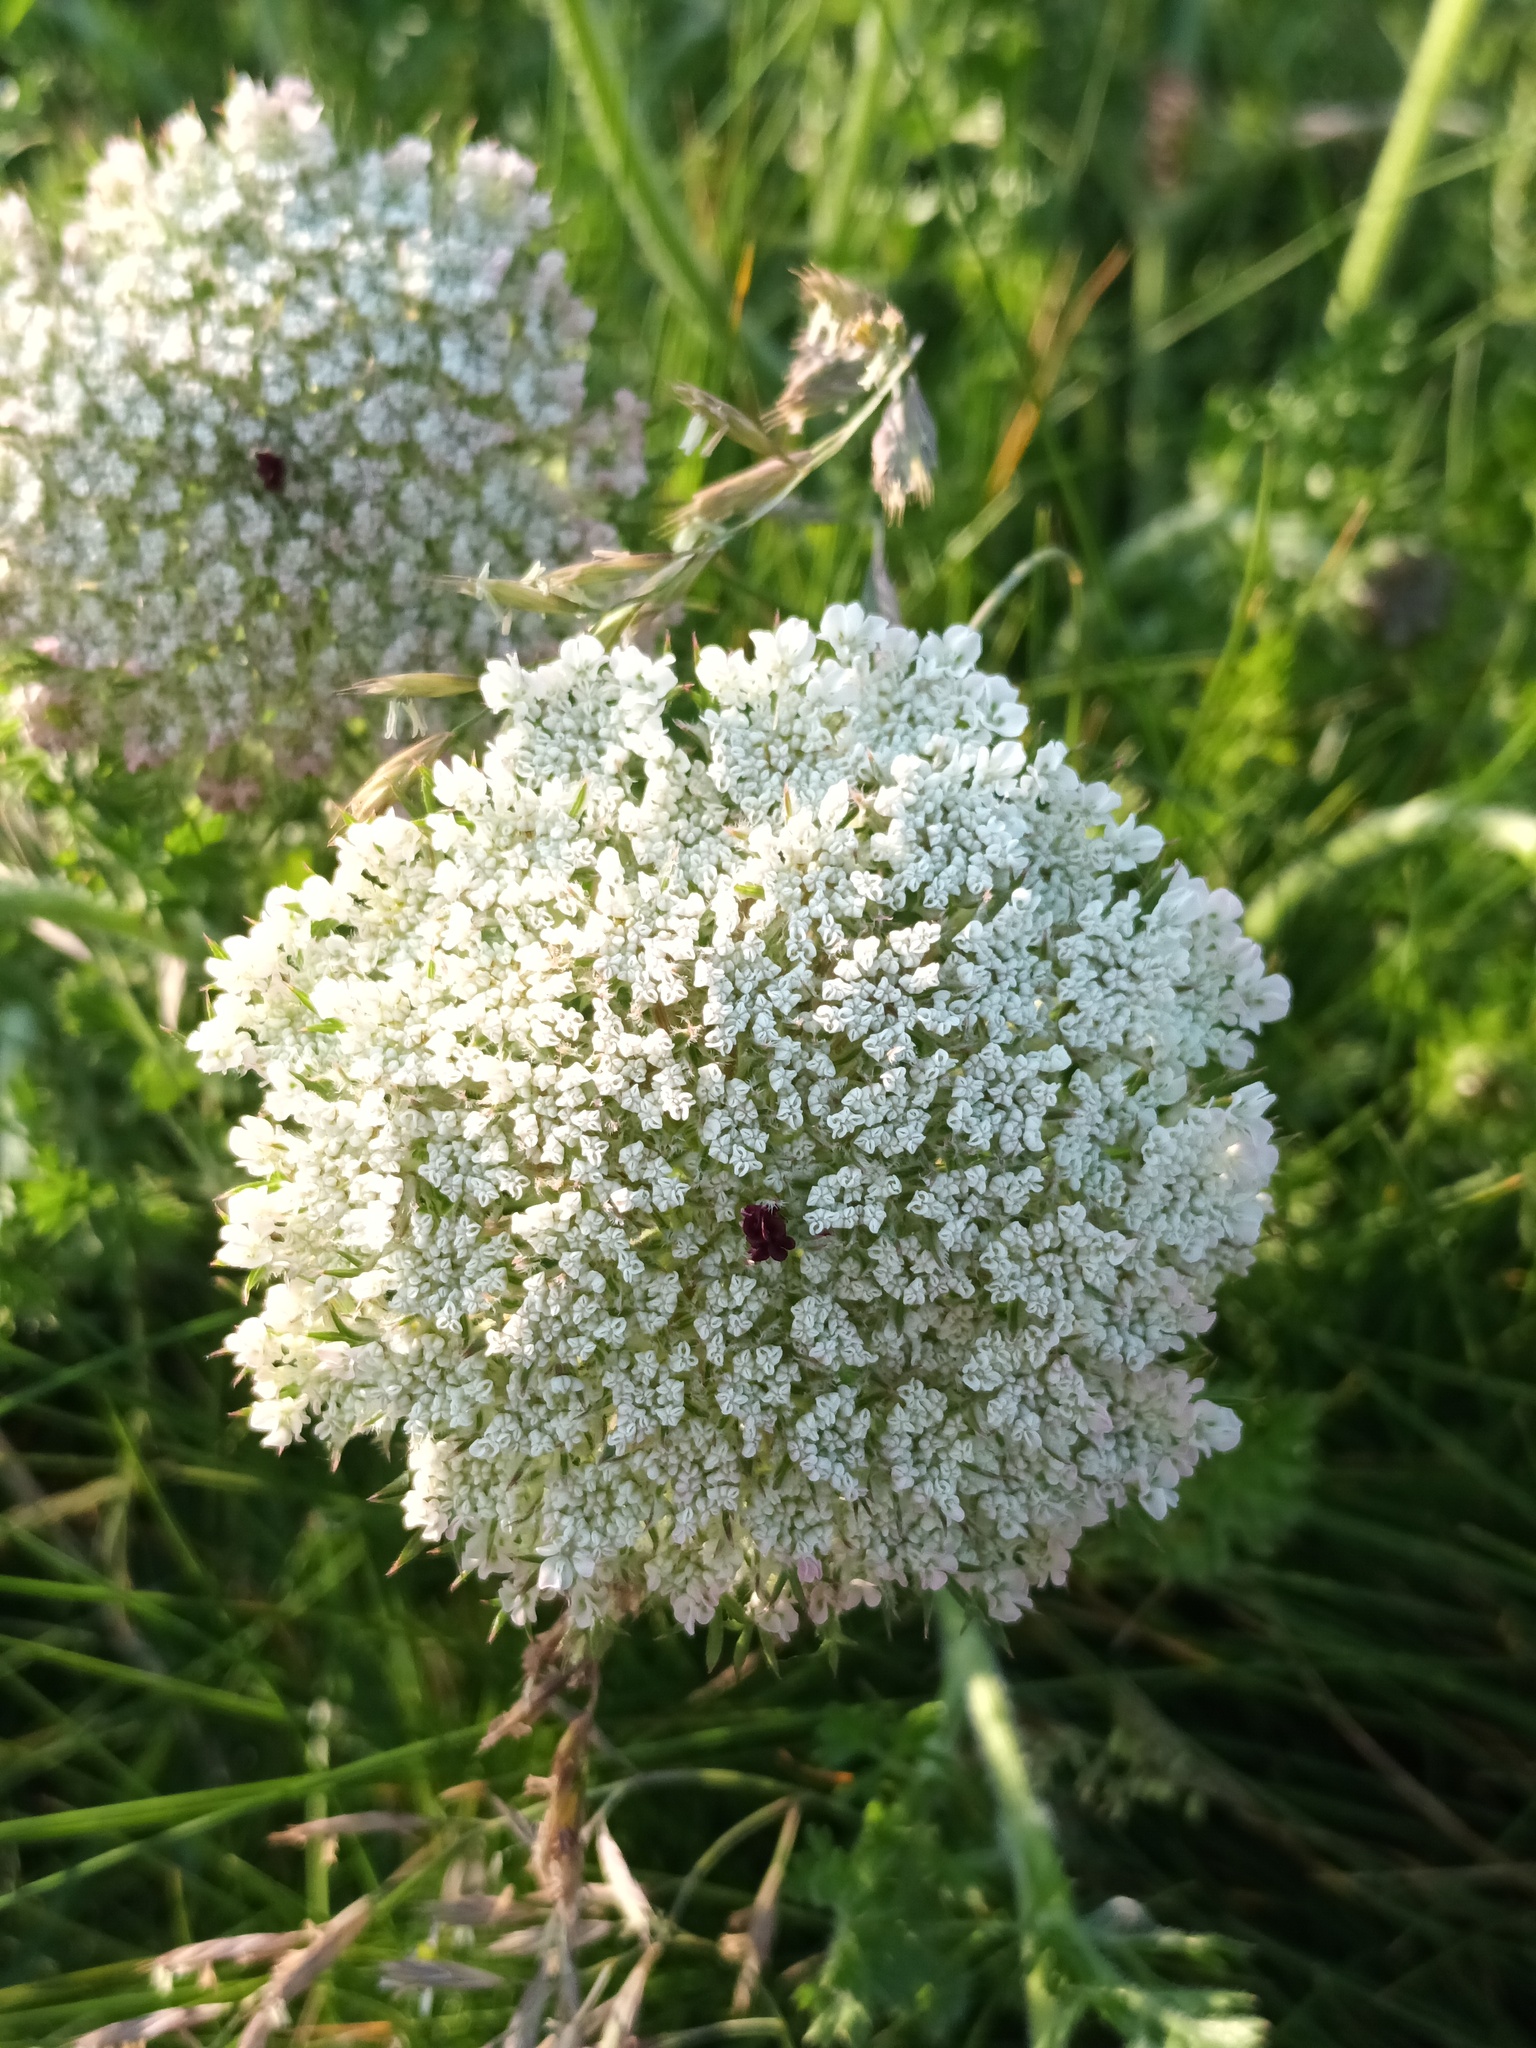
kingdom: Plantae
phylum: Tracheophyta
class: Magnoliopsida
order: Apiales
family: Apiaceae
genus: Daucus
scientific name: Daucus carota
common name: Wild carrot
